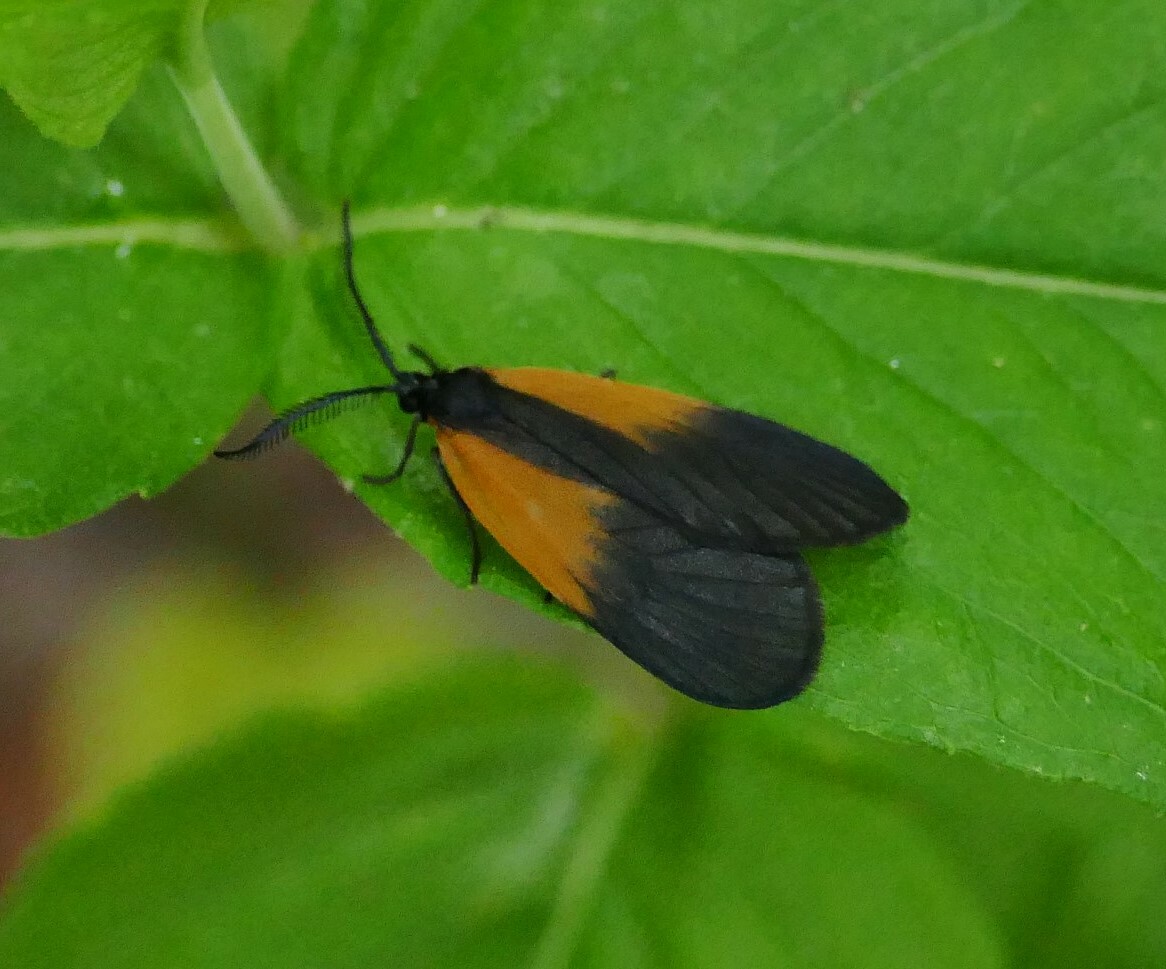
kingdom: Animalia
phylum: Arthropoda
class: Insecta
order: Lepidoptera
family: Zygaenidae
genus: Malthaca
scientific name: Malthaca dimidiata
